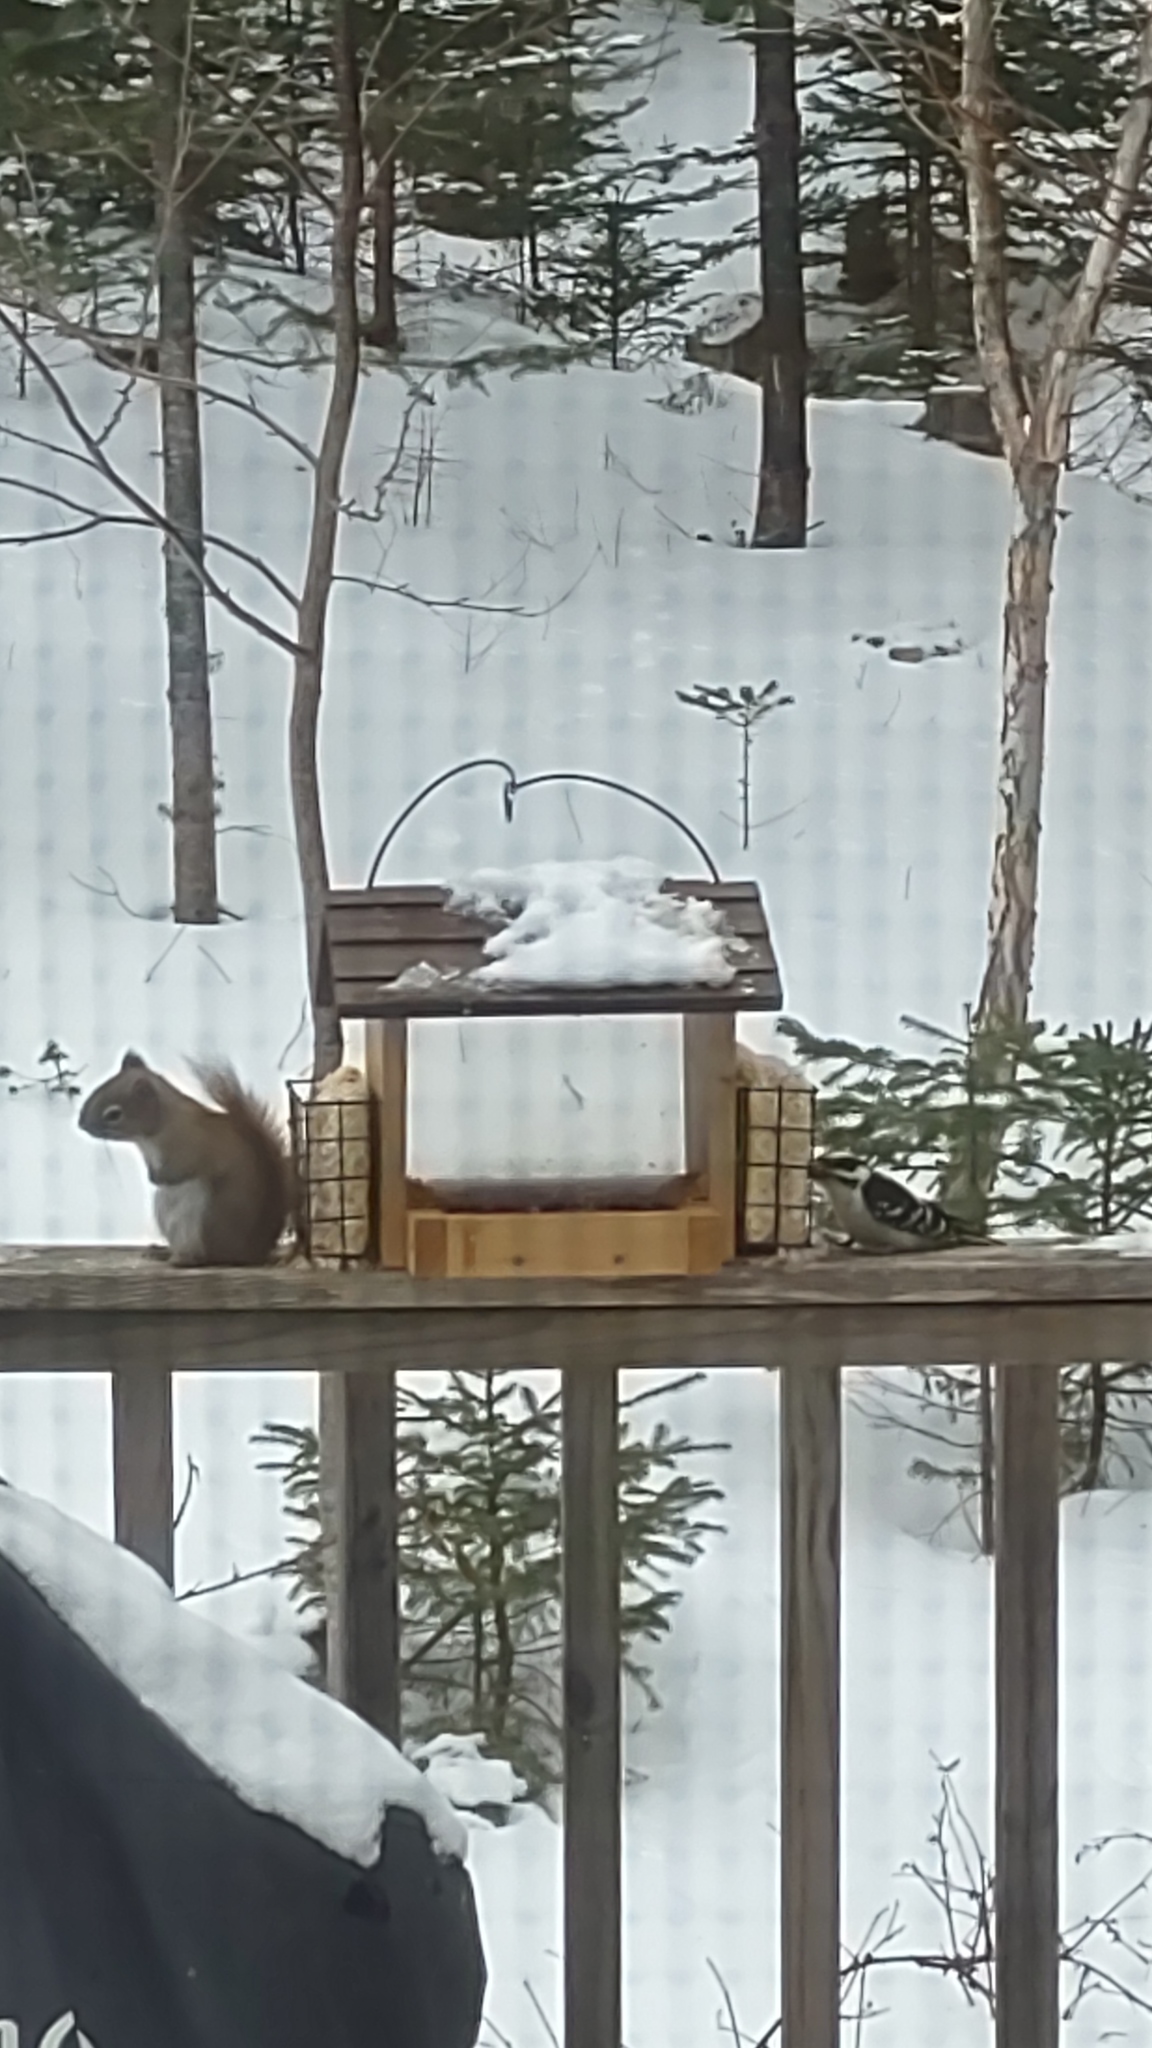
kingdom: Animalia
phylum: Chordata
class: Mammalia
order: Rodentia
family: Sciuridae
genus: Tamiasciurus
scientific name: Tamiasciurus hudsonicus
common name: Red squirrel
